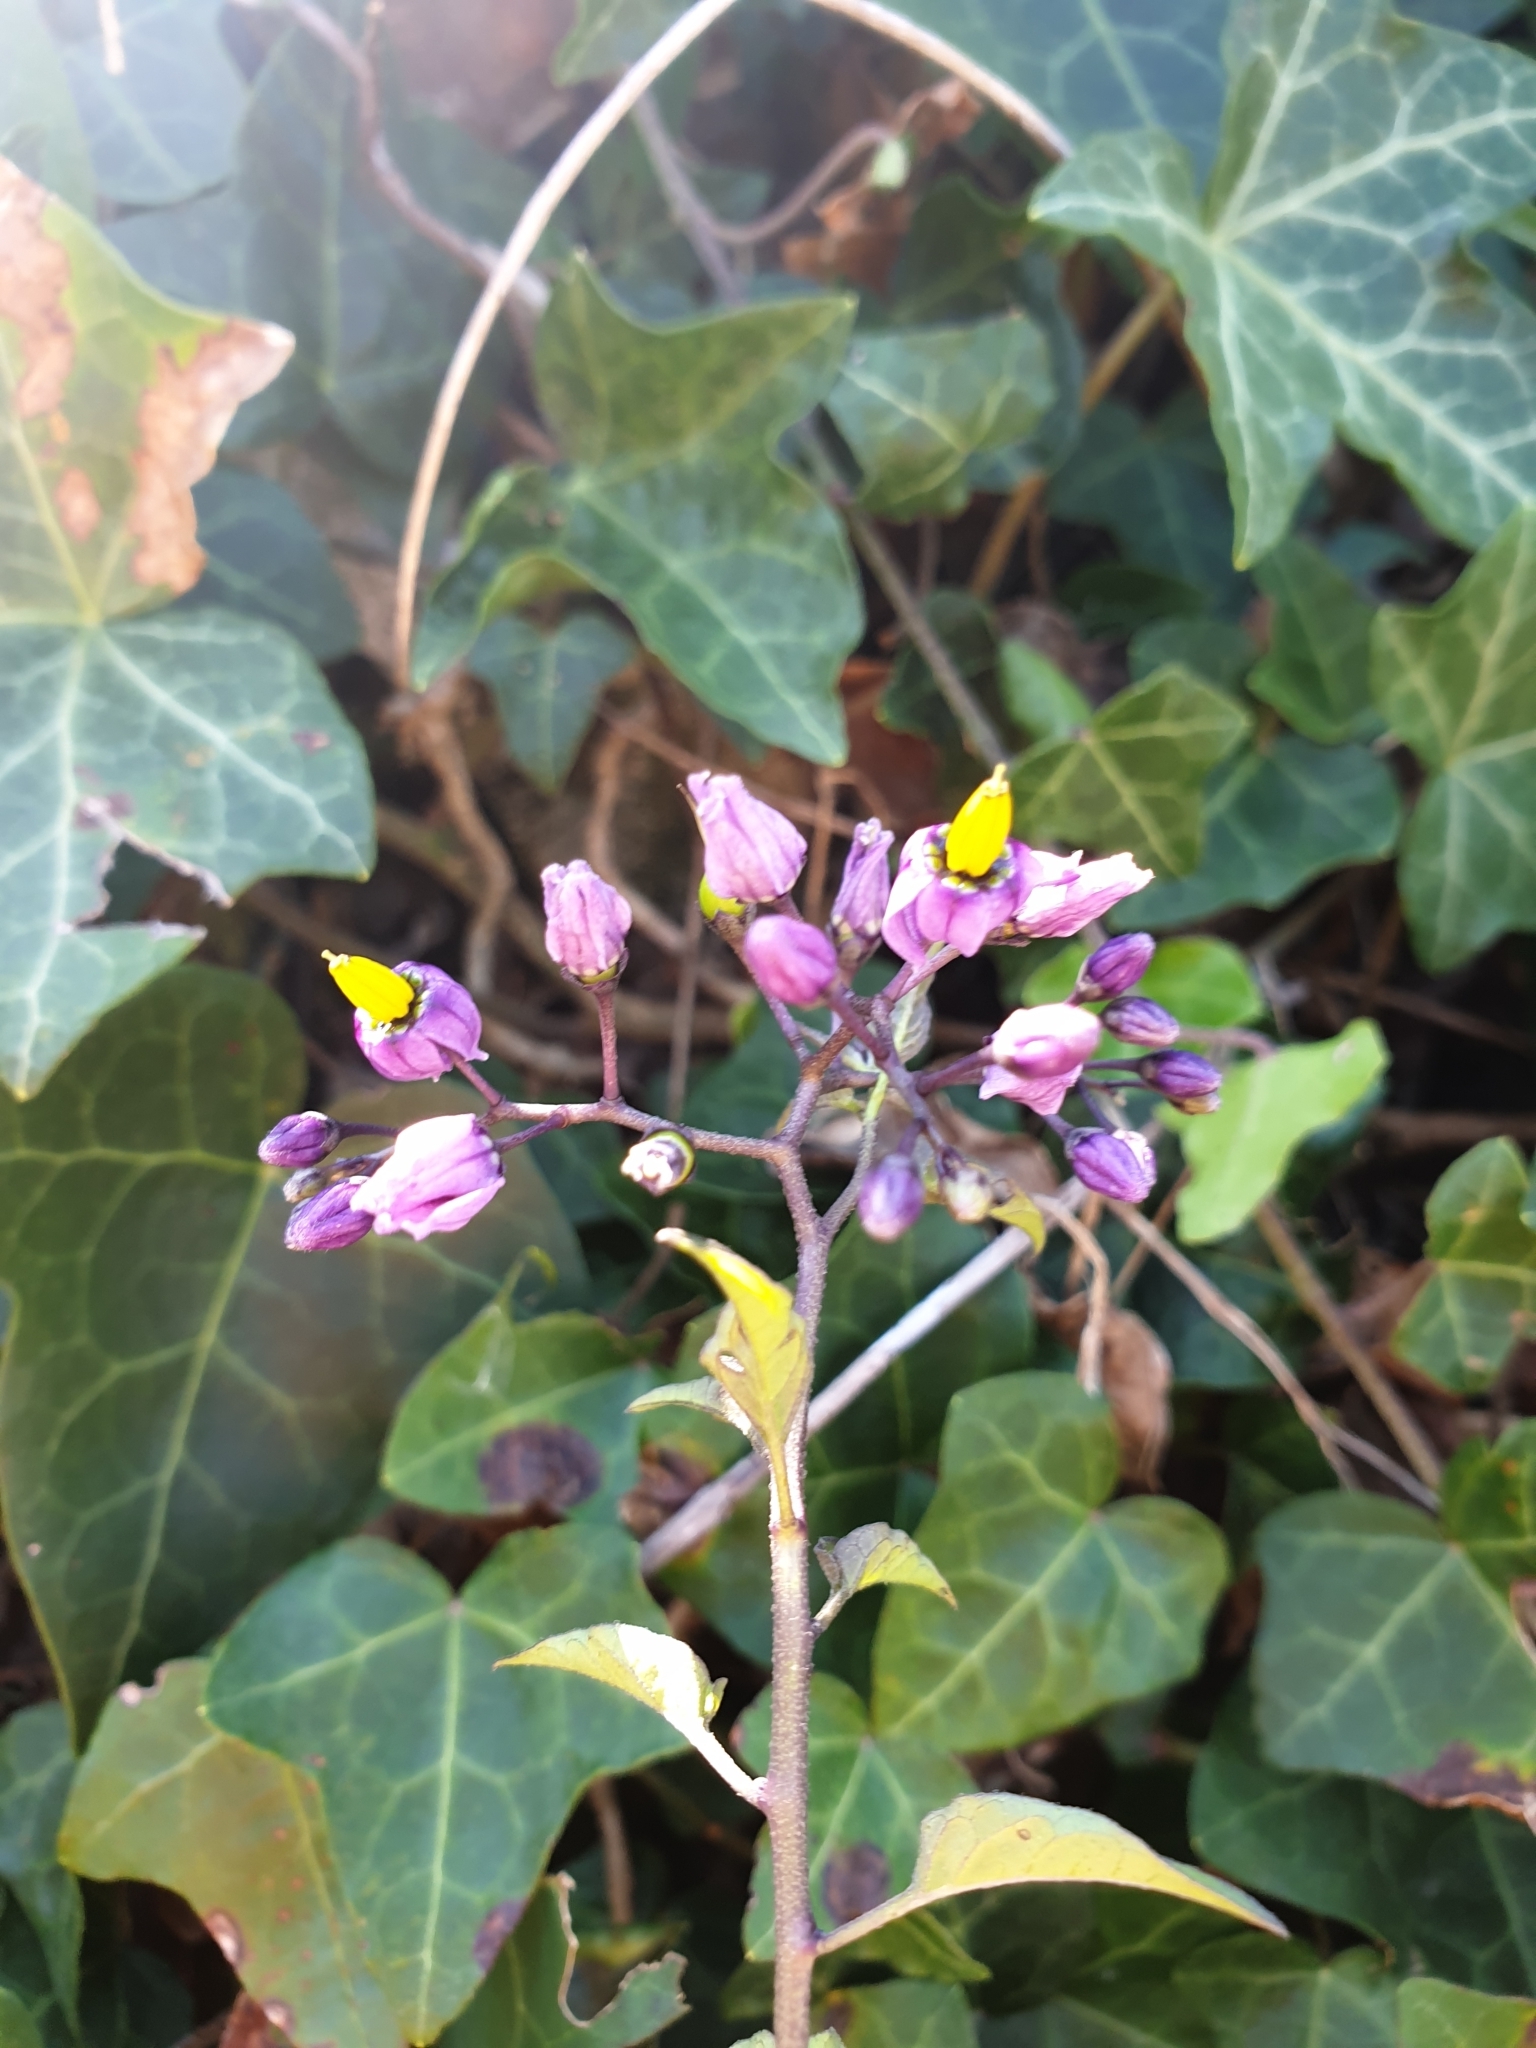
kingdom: Plantae
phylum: Tracheophyta
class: Magnoliopsida
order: Solanales
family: Solanaceae
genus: Solanum
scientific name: Solanum dulcamara
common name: Climbing nightshade
